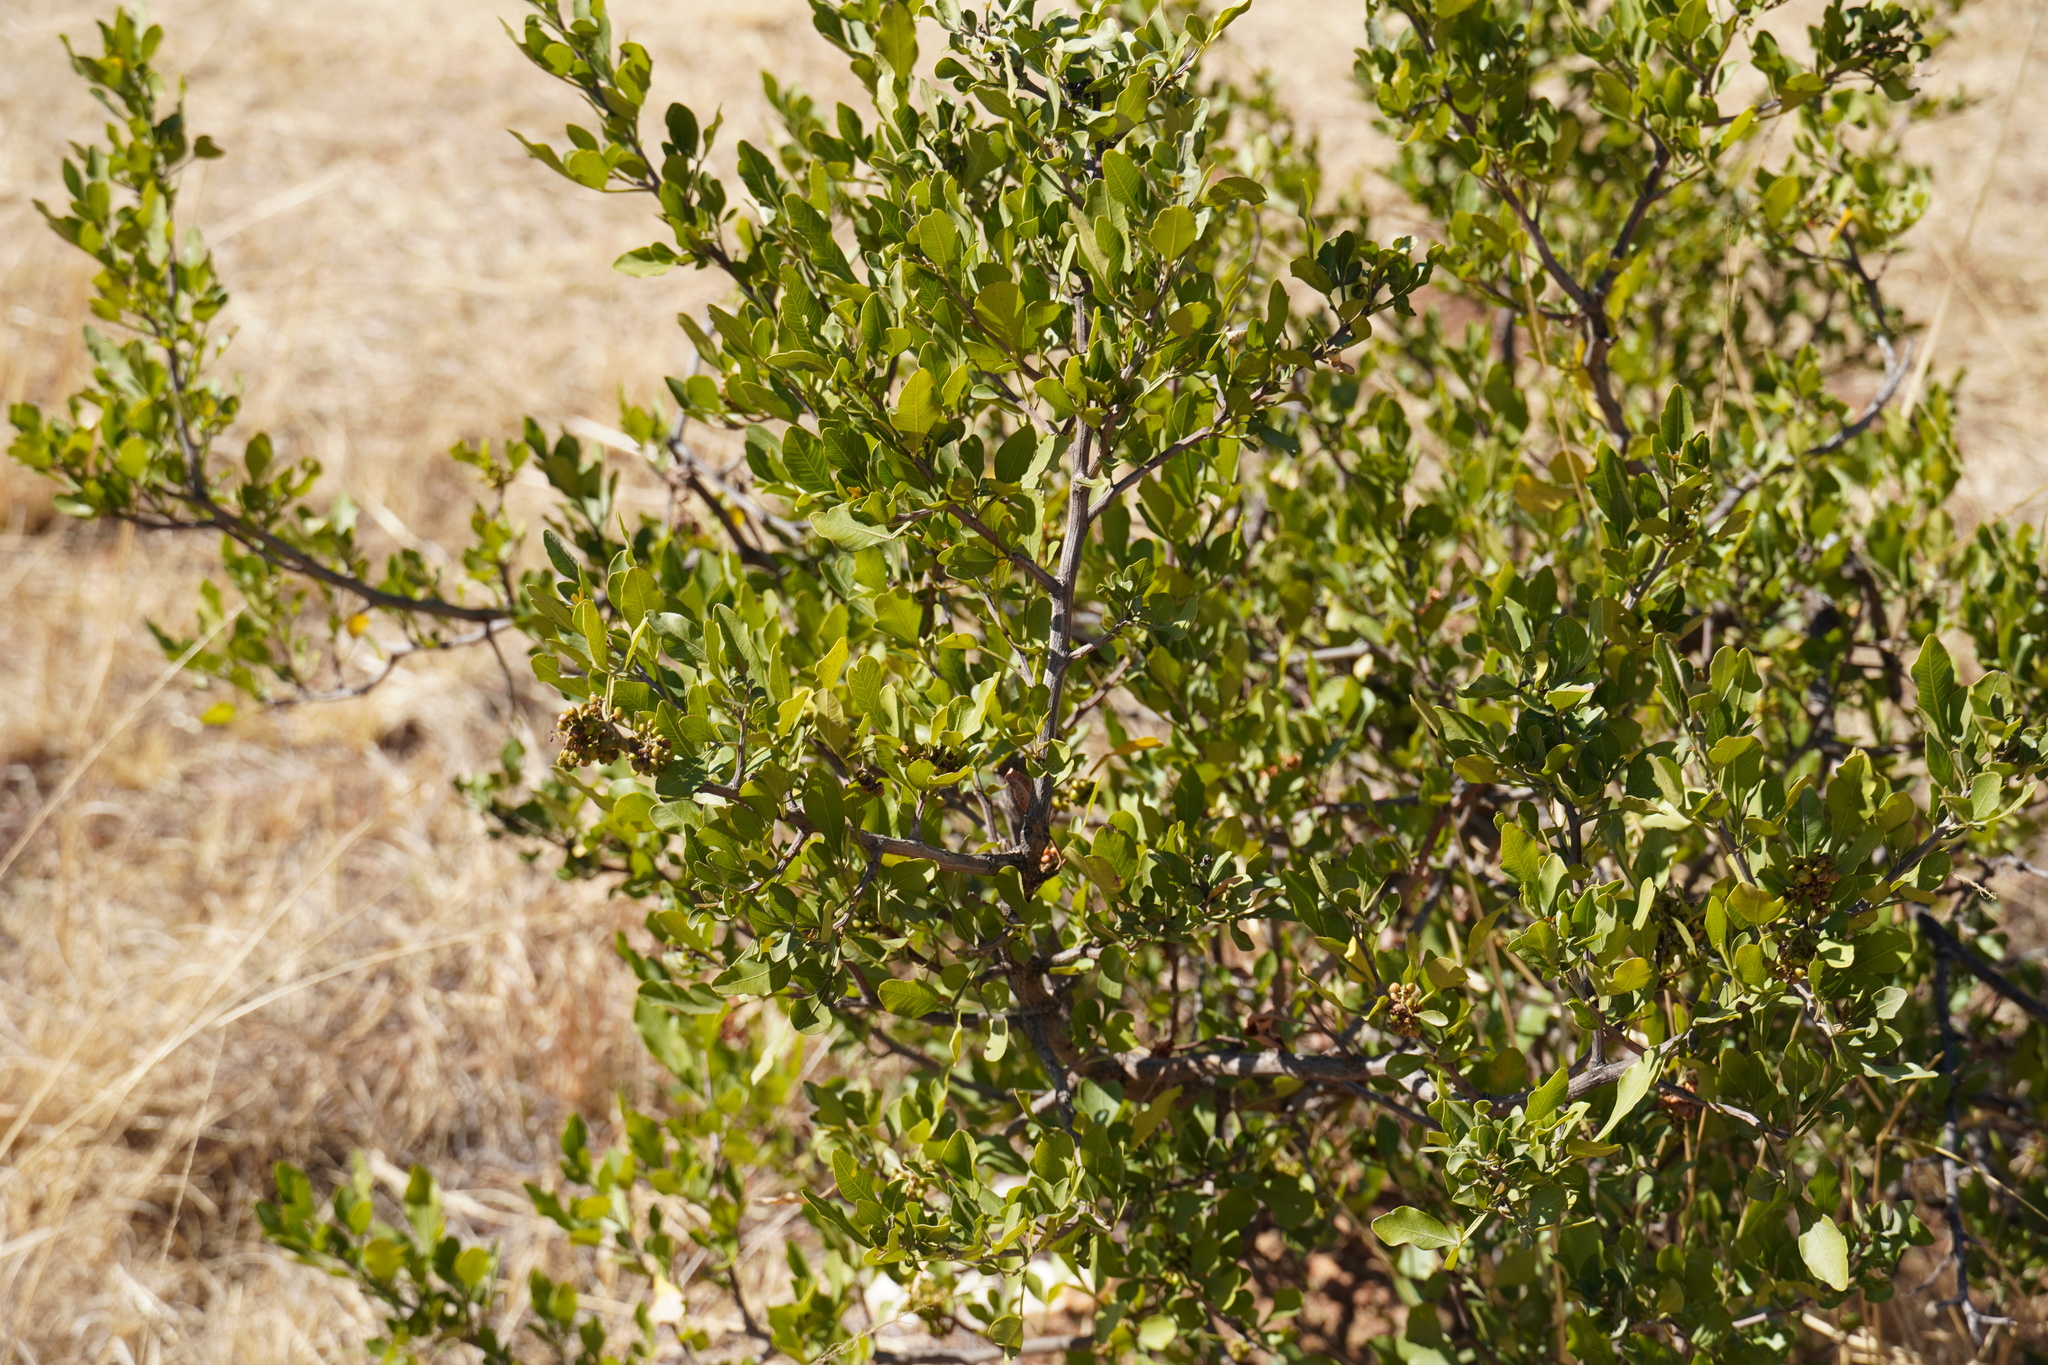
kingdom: Plantae
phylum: Tracheophyta
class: Magnoliopsida
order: Sapindales
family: Anacardiaceae
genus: Searsia
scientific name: Searsia pallens
